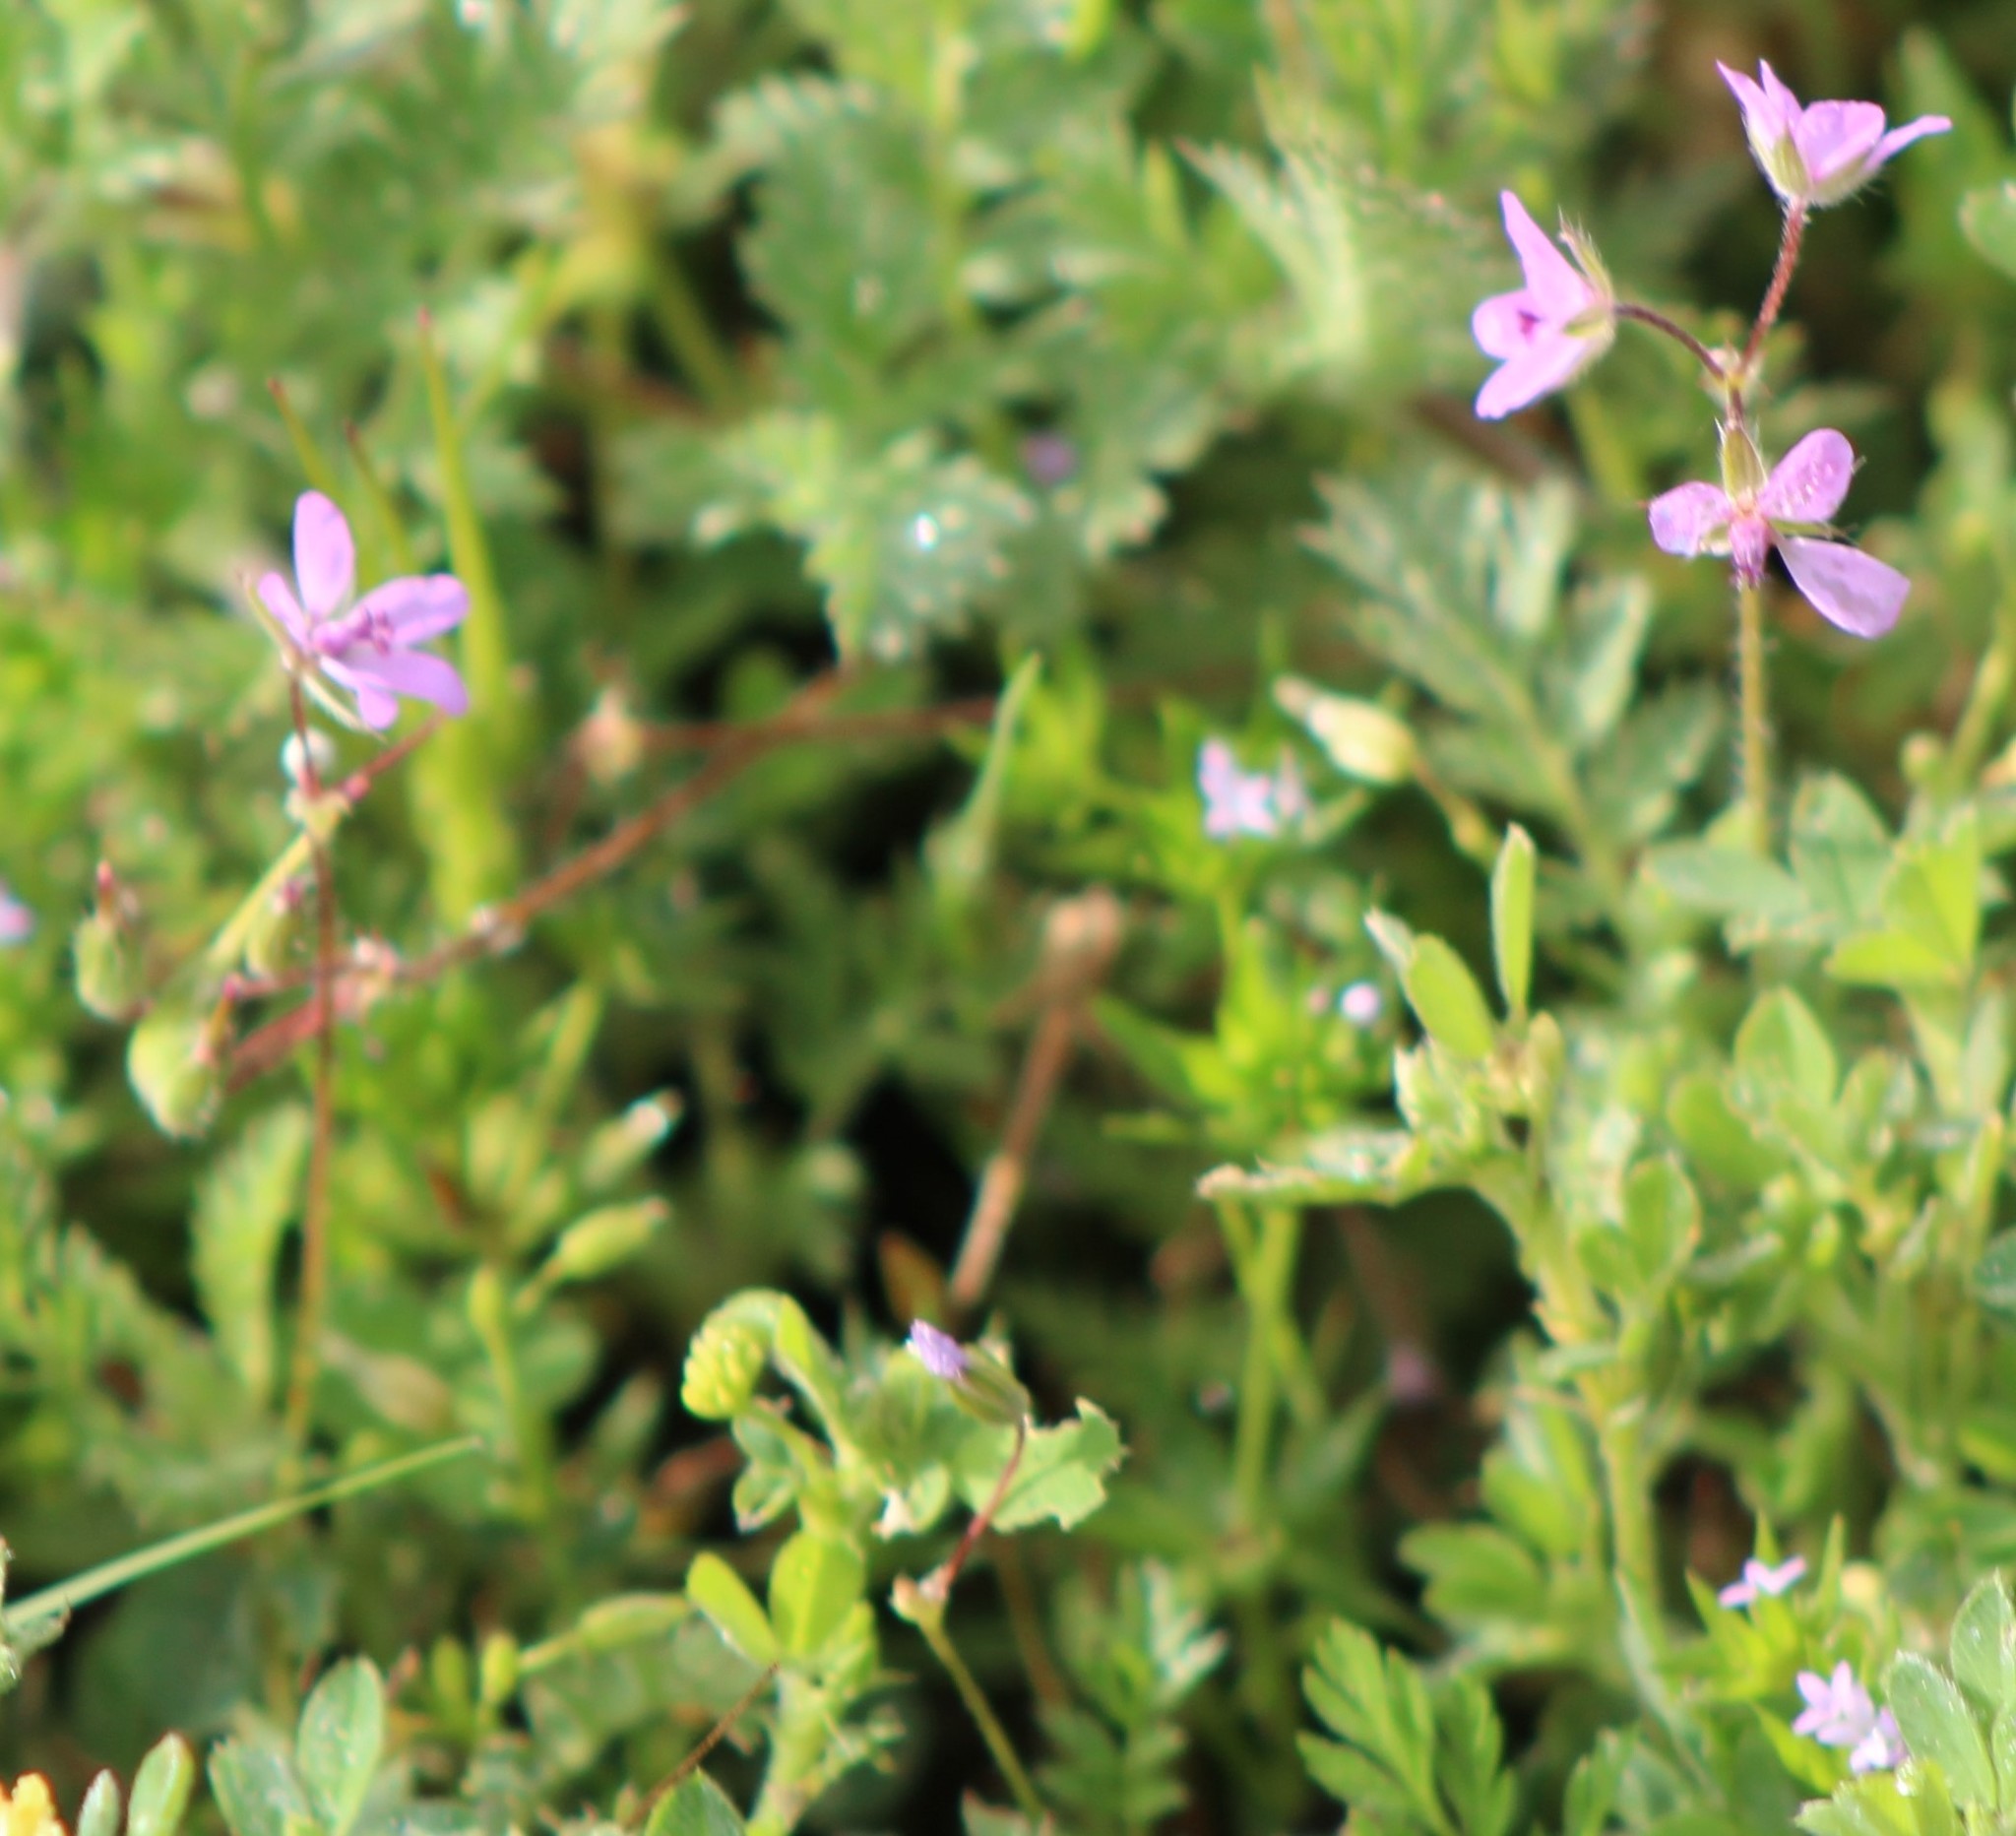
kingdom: Plantae
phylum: Tracheophyta
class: Magnoliopsida
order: Geraniales
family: Geraniaceae
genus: Erodium
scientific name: Erodium cicutarium
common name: Common stork's-bill
